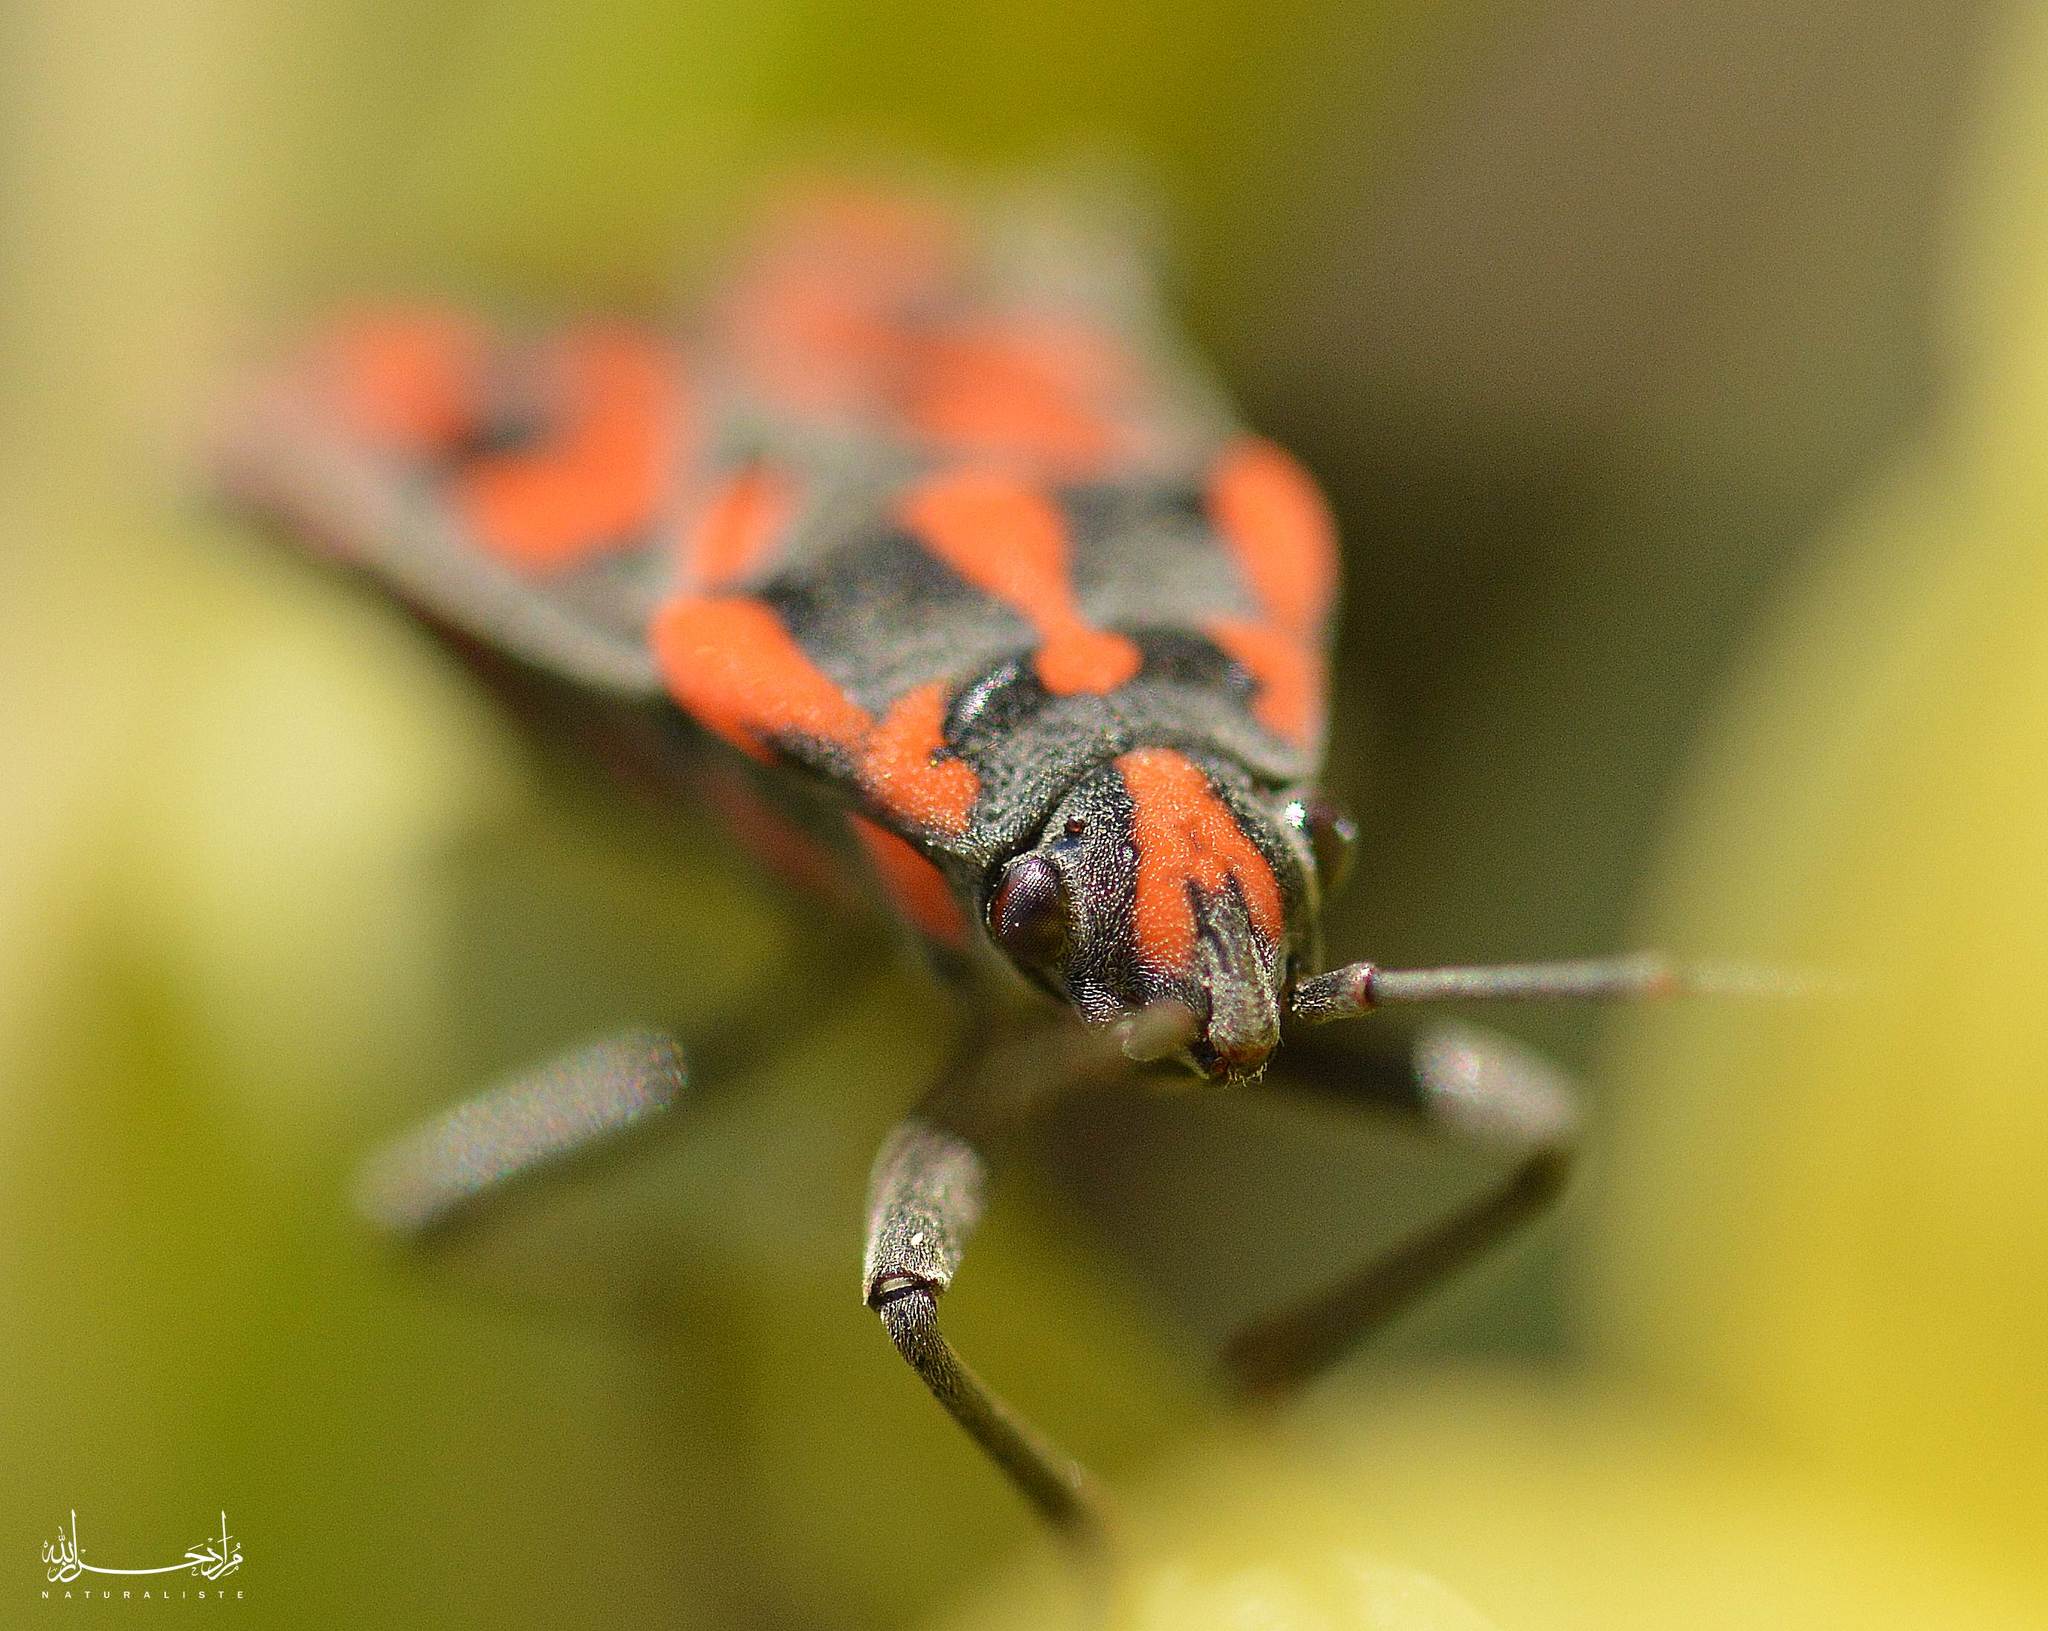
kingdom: Animalia
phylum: Arthropoda
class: Insecta
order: Hemiptera
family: Lygaeidae
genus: Spilostethus
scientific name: Spilostethus saxatilis
